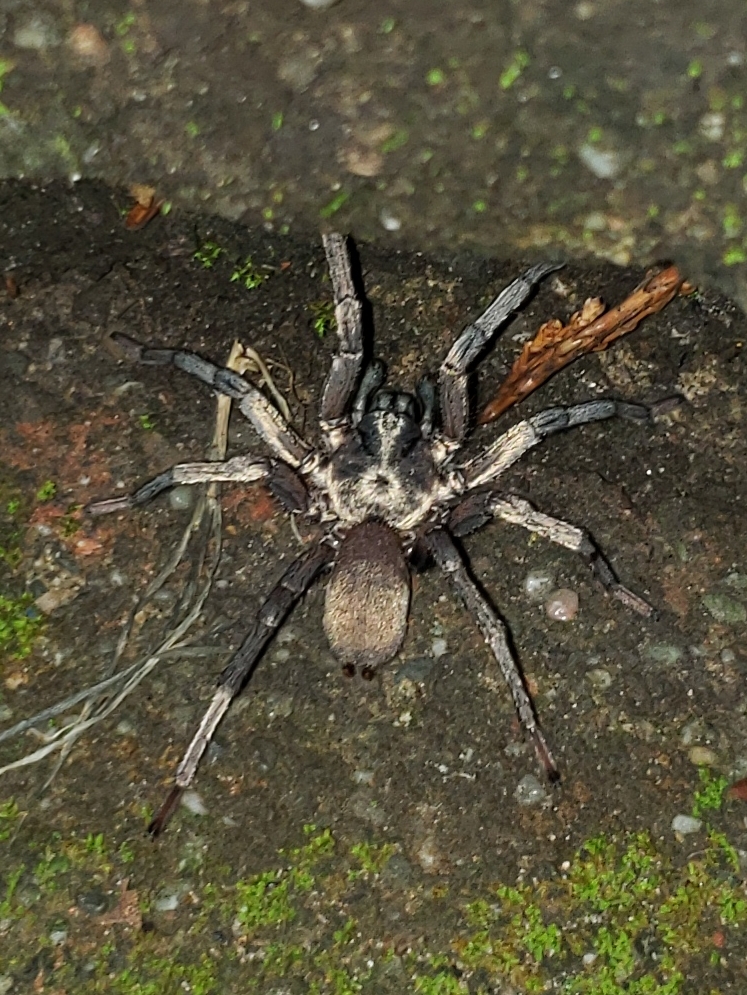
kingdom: Animalia
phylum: Arthropoda
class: Arachnida
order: Araneae
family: Nemesiidae
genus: Calisoga
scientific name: Calisoga longitarsis
